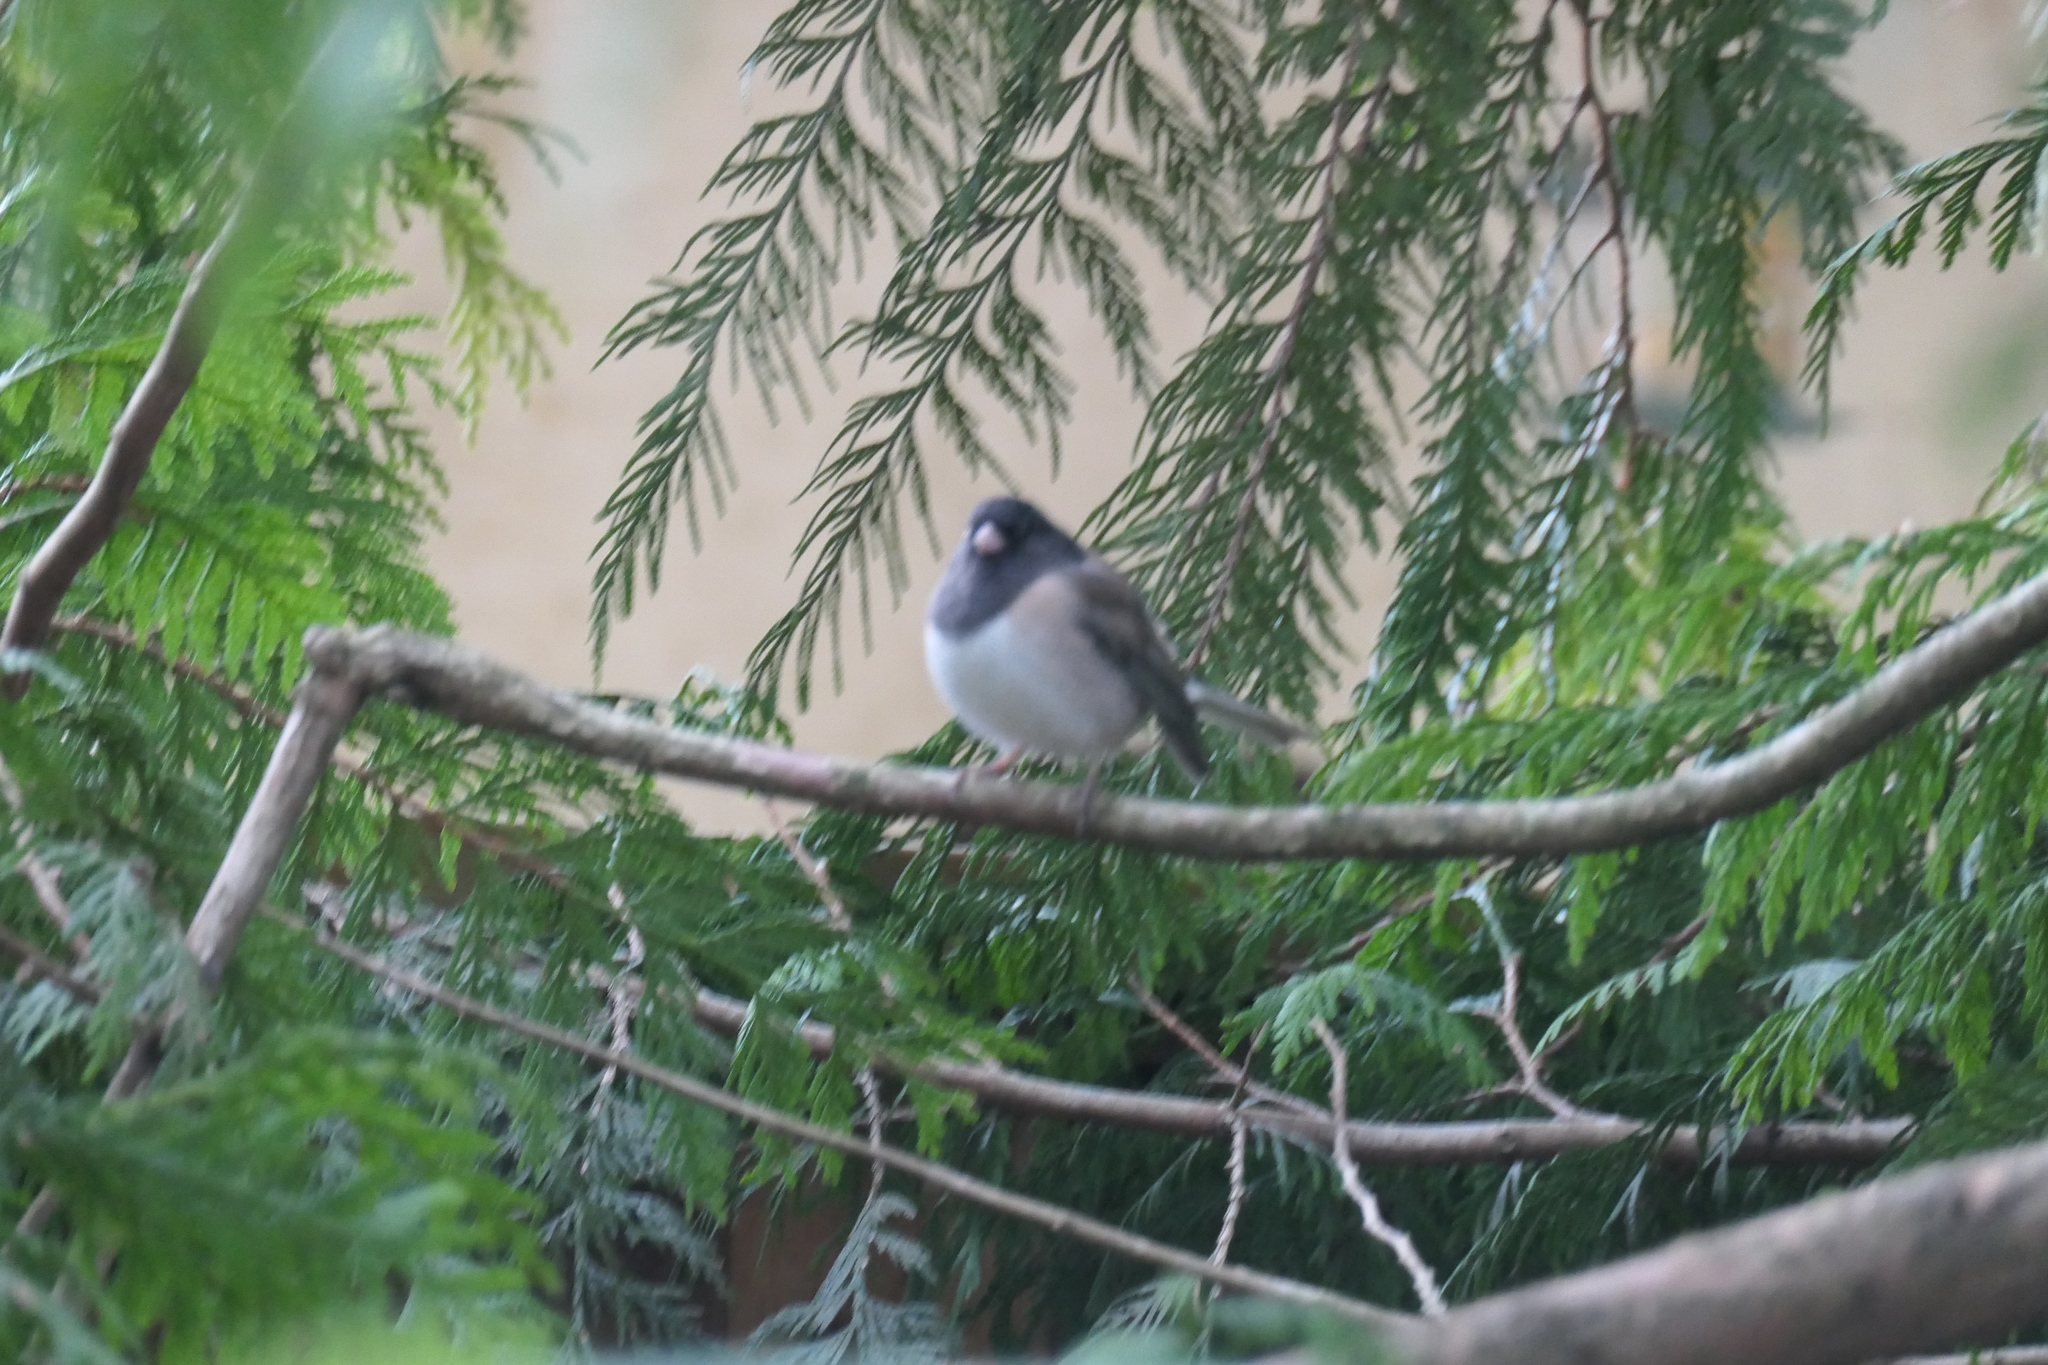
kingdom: Animalia
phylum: Chordata
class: Aves
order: Passeriformes
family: Passerellidae
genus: Junco
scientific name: Junco hyemalis
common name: Dark-eyed junco
